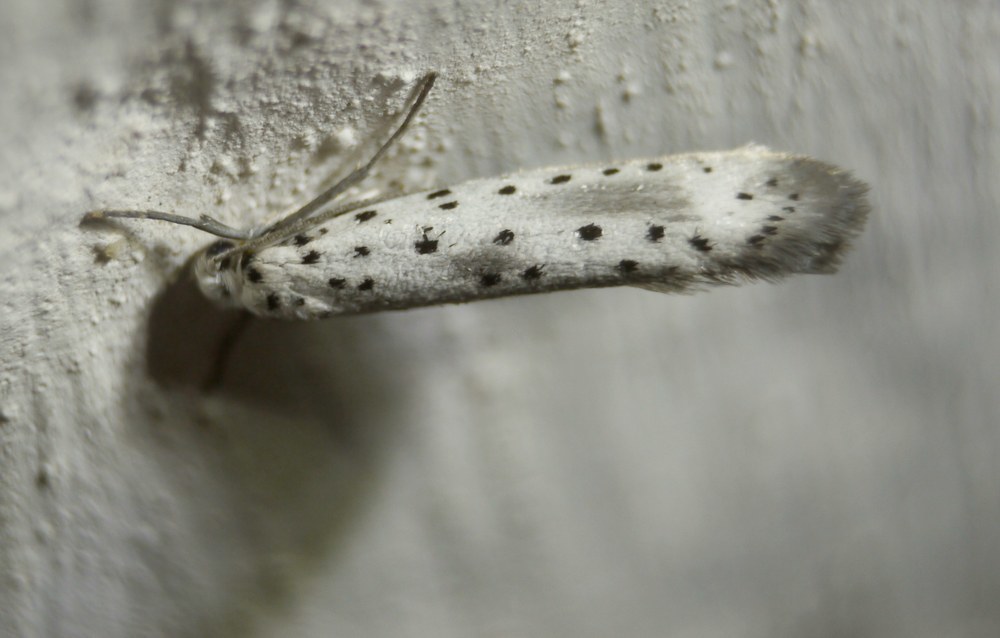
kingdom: Animalia
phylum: Arthropoda
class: Insecta
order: Lepidoptera
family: Yponomeutidae
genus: Yponomeuta
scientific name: Yponomeuta irrorella
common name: Scarce ermine
